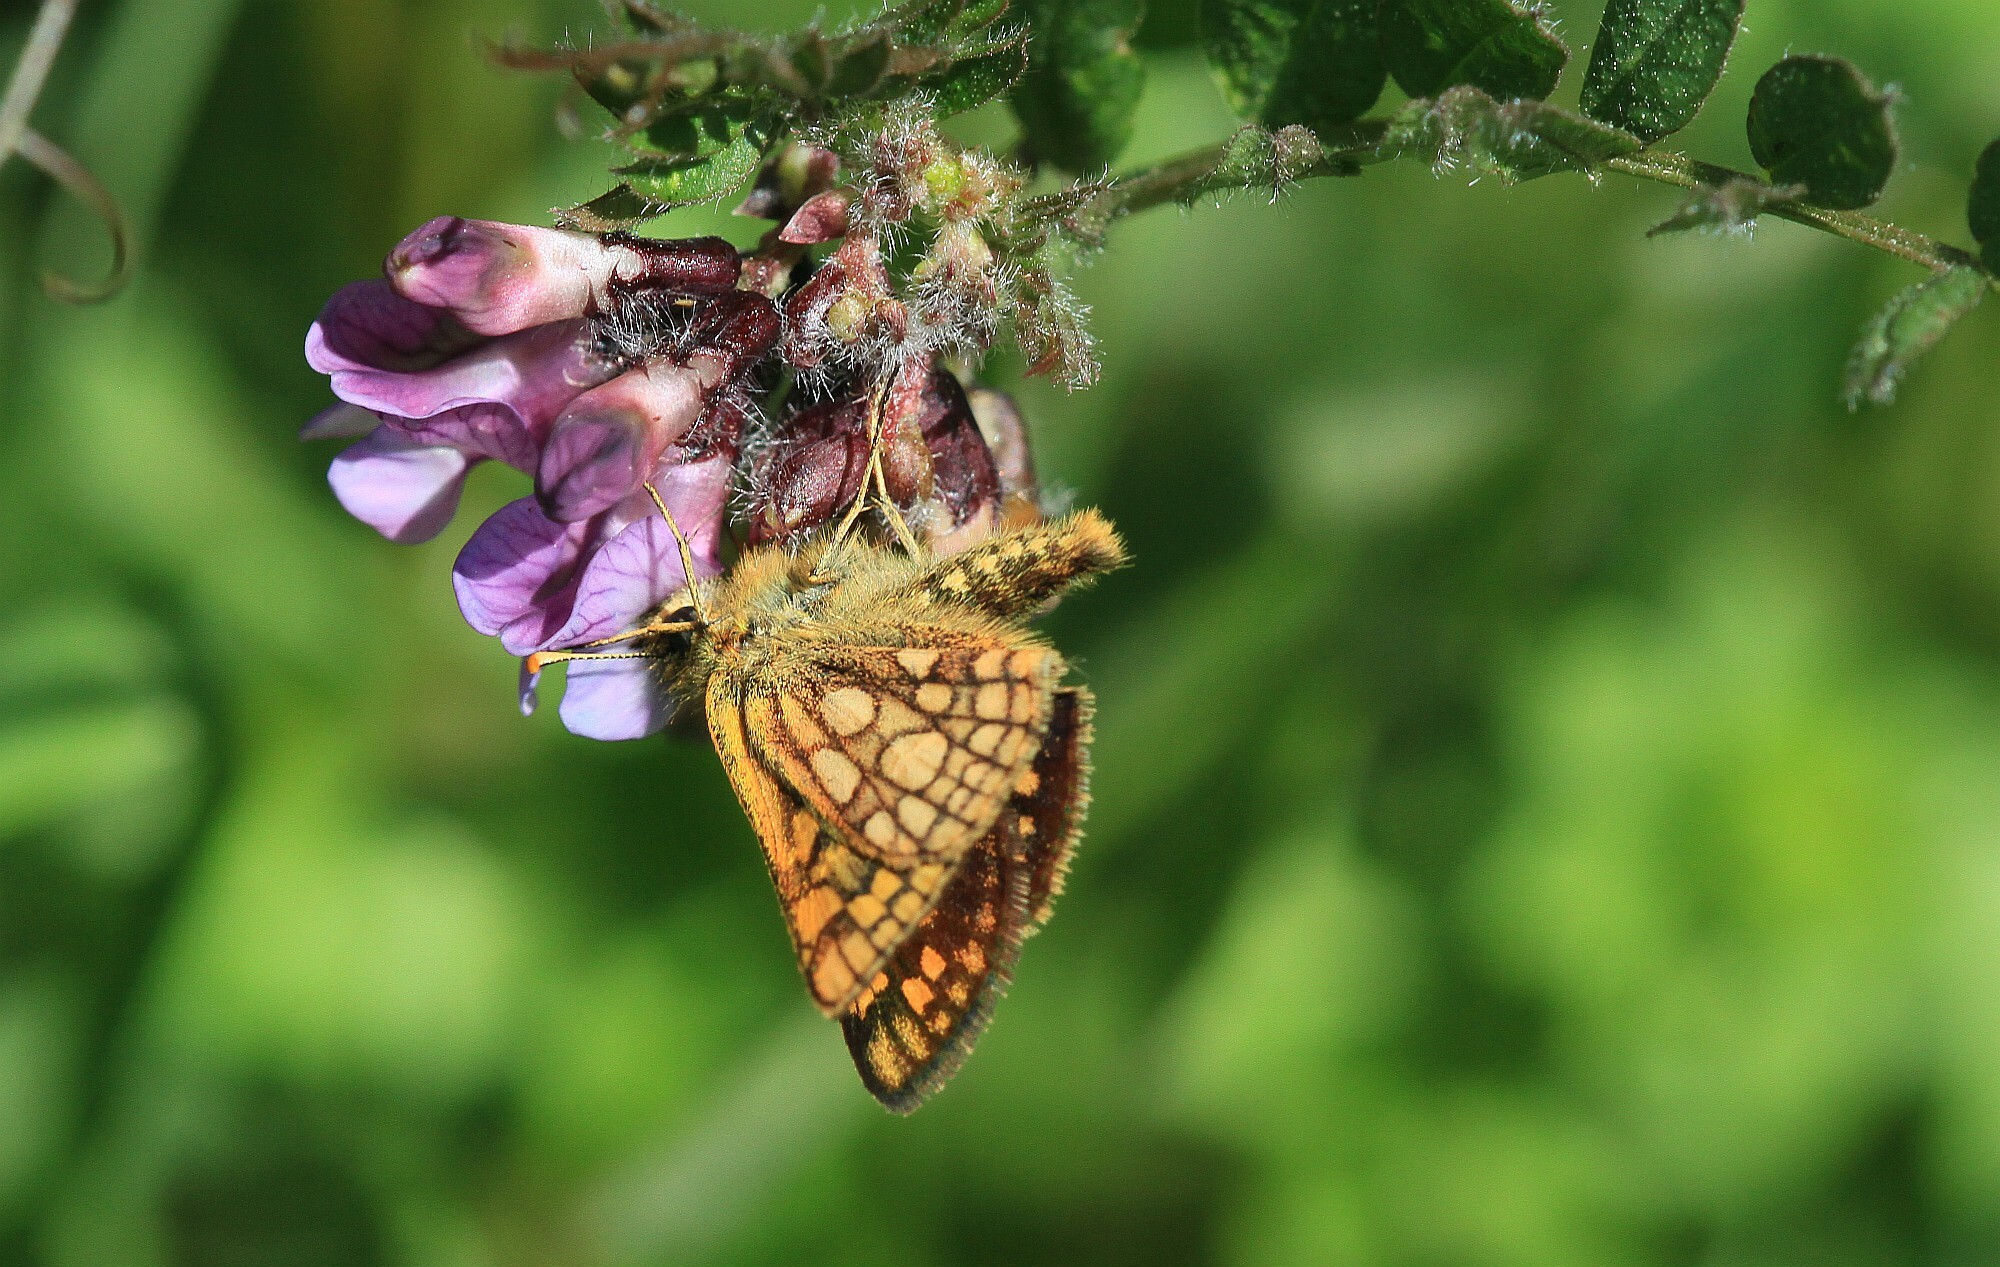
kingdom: Animalia
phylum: Arthropoda
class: Insecta
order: Lepidoptera
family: Hesperiidae
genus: Carterocephalus
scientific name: Carterocephalus palaemon
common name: Chequered skipper
